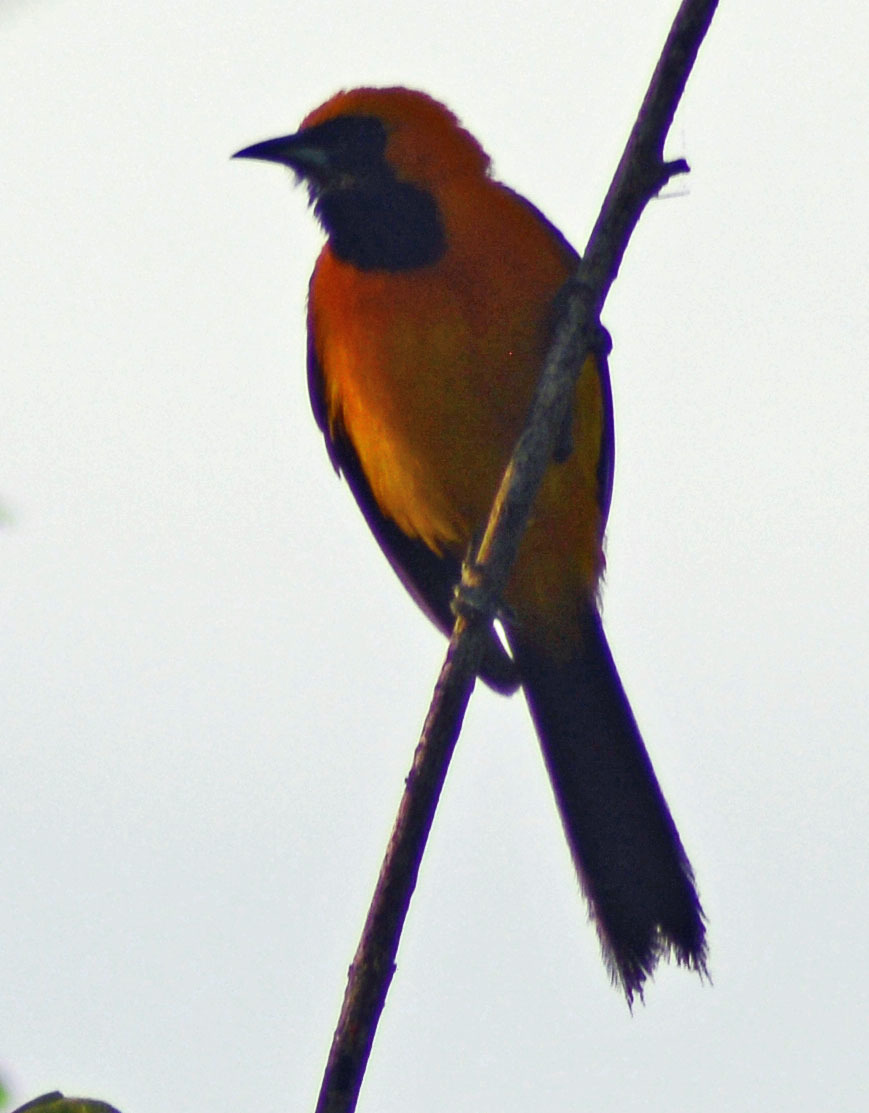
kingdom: Animalia
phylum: Chordata
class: Aves
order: Passeriformes
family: Icteridae
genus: Icterus
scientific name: Icterus cucullatus
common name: Hooded oriole
